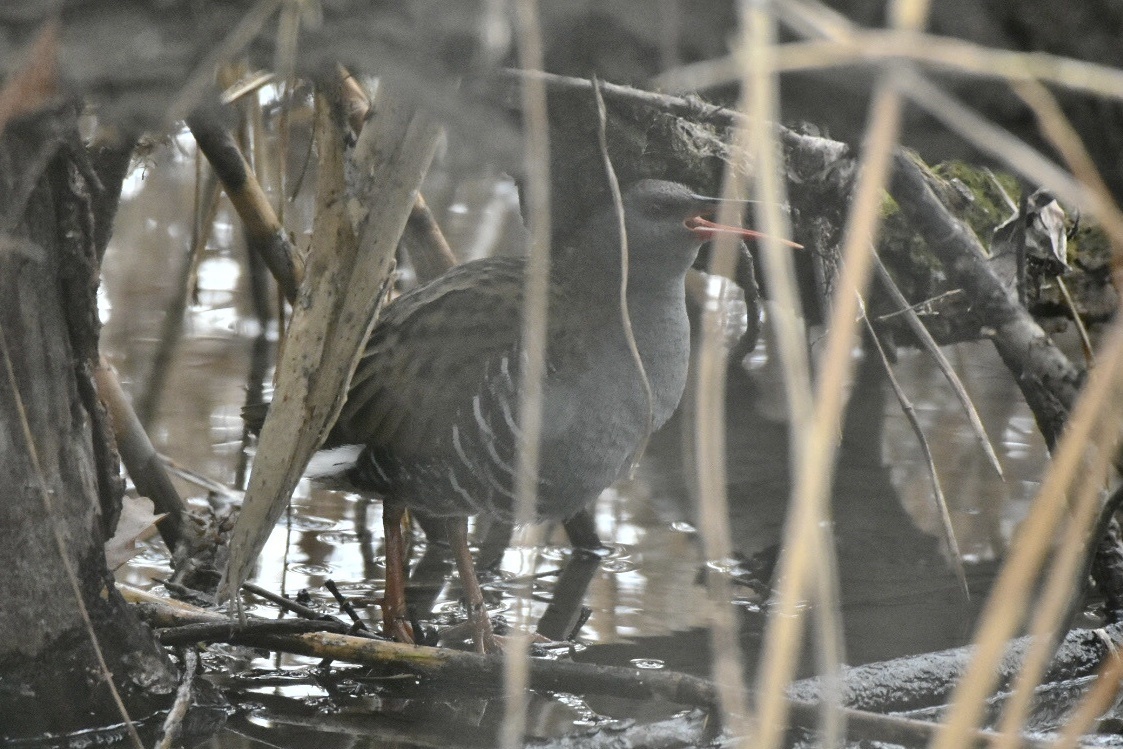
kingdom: Animalia
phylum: Chordata
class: Aves
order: Gruiformes
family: Rallidae
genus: Rallus
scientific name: Rallus aquaticus
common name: Water rail
